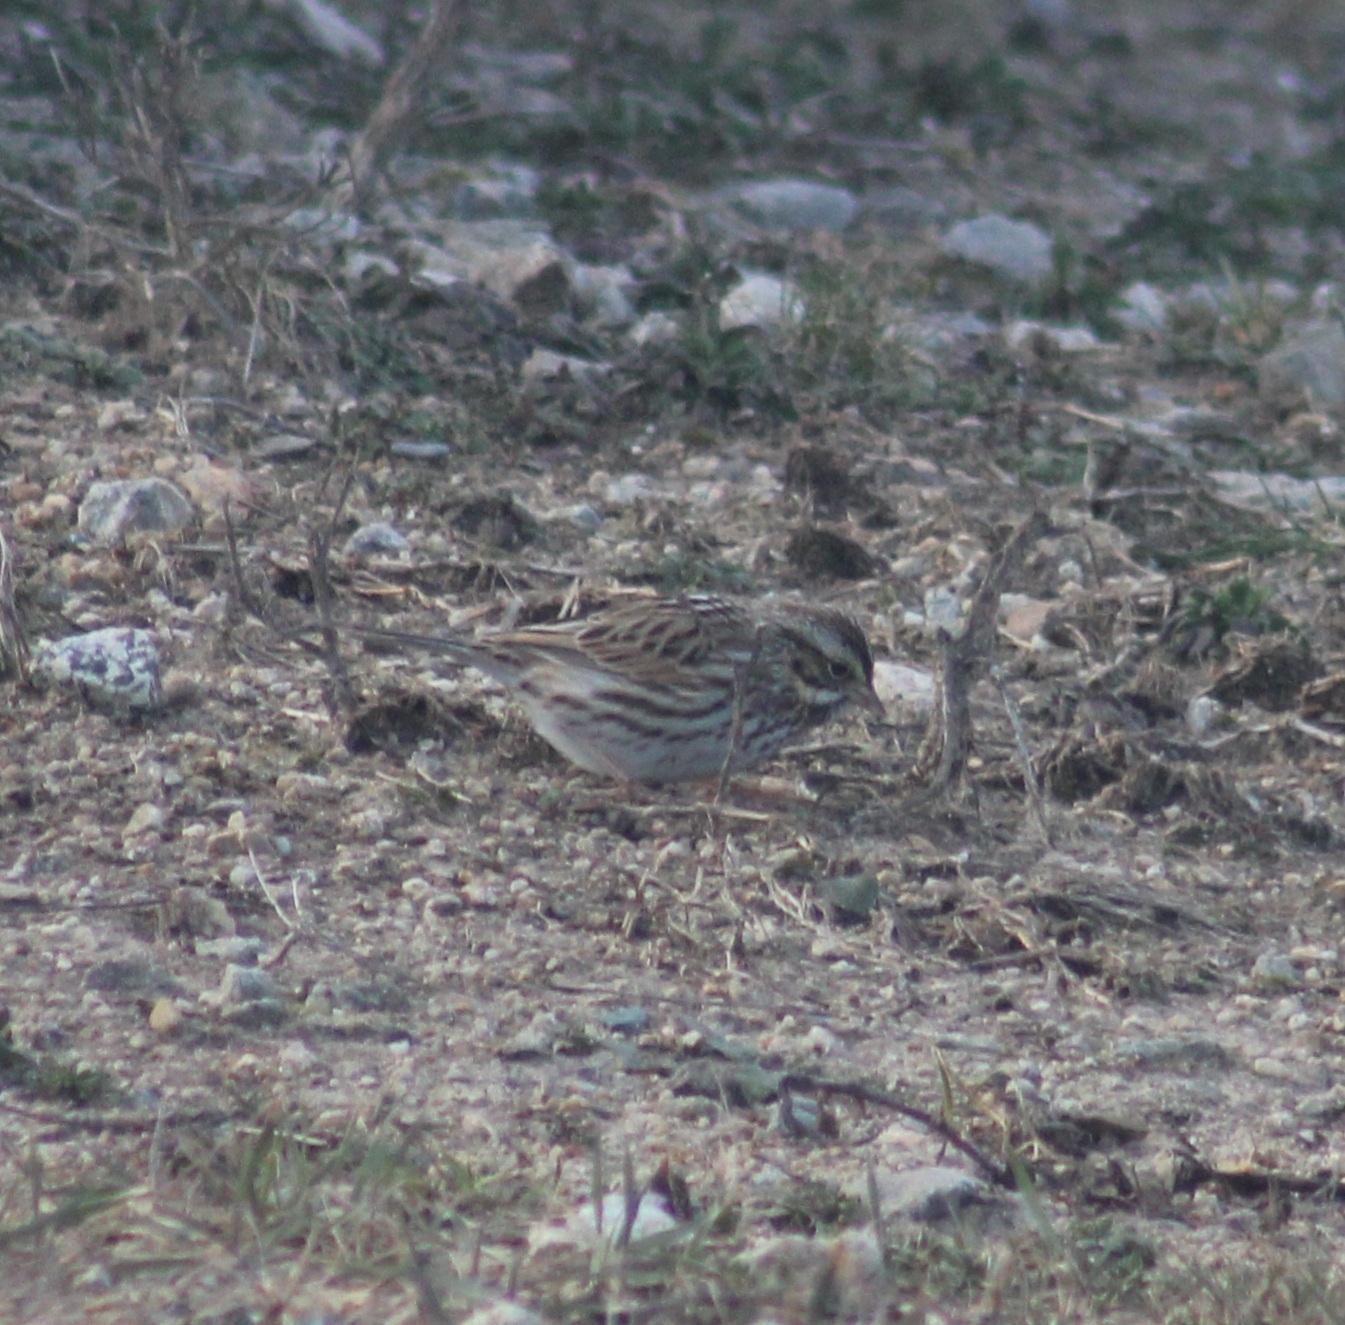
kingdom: Animalia
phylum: Chordata
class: Aves
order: Passeriformes
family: Passerellidae
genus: Passerculus
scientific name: Passerculus sandwichensis
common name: Savannah sparrow
